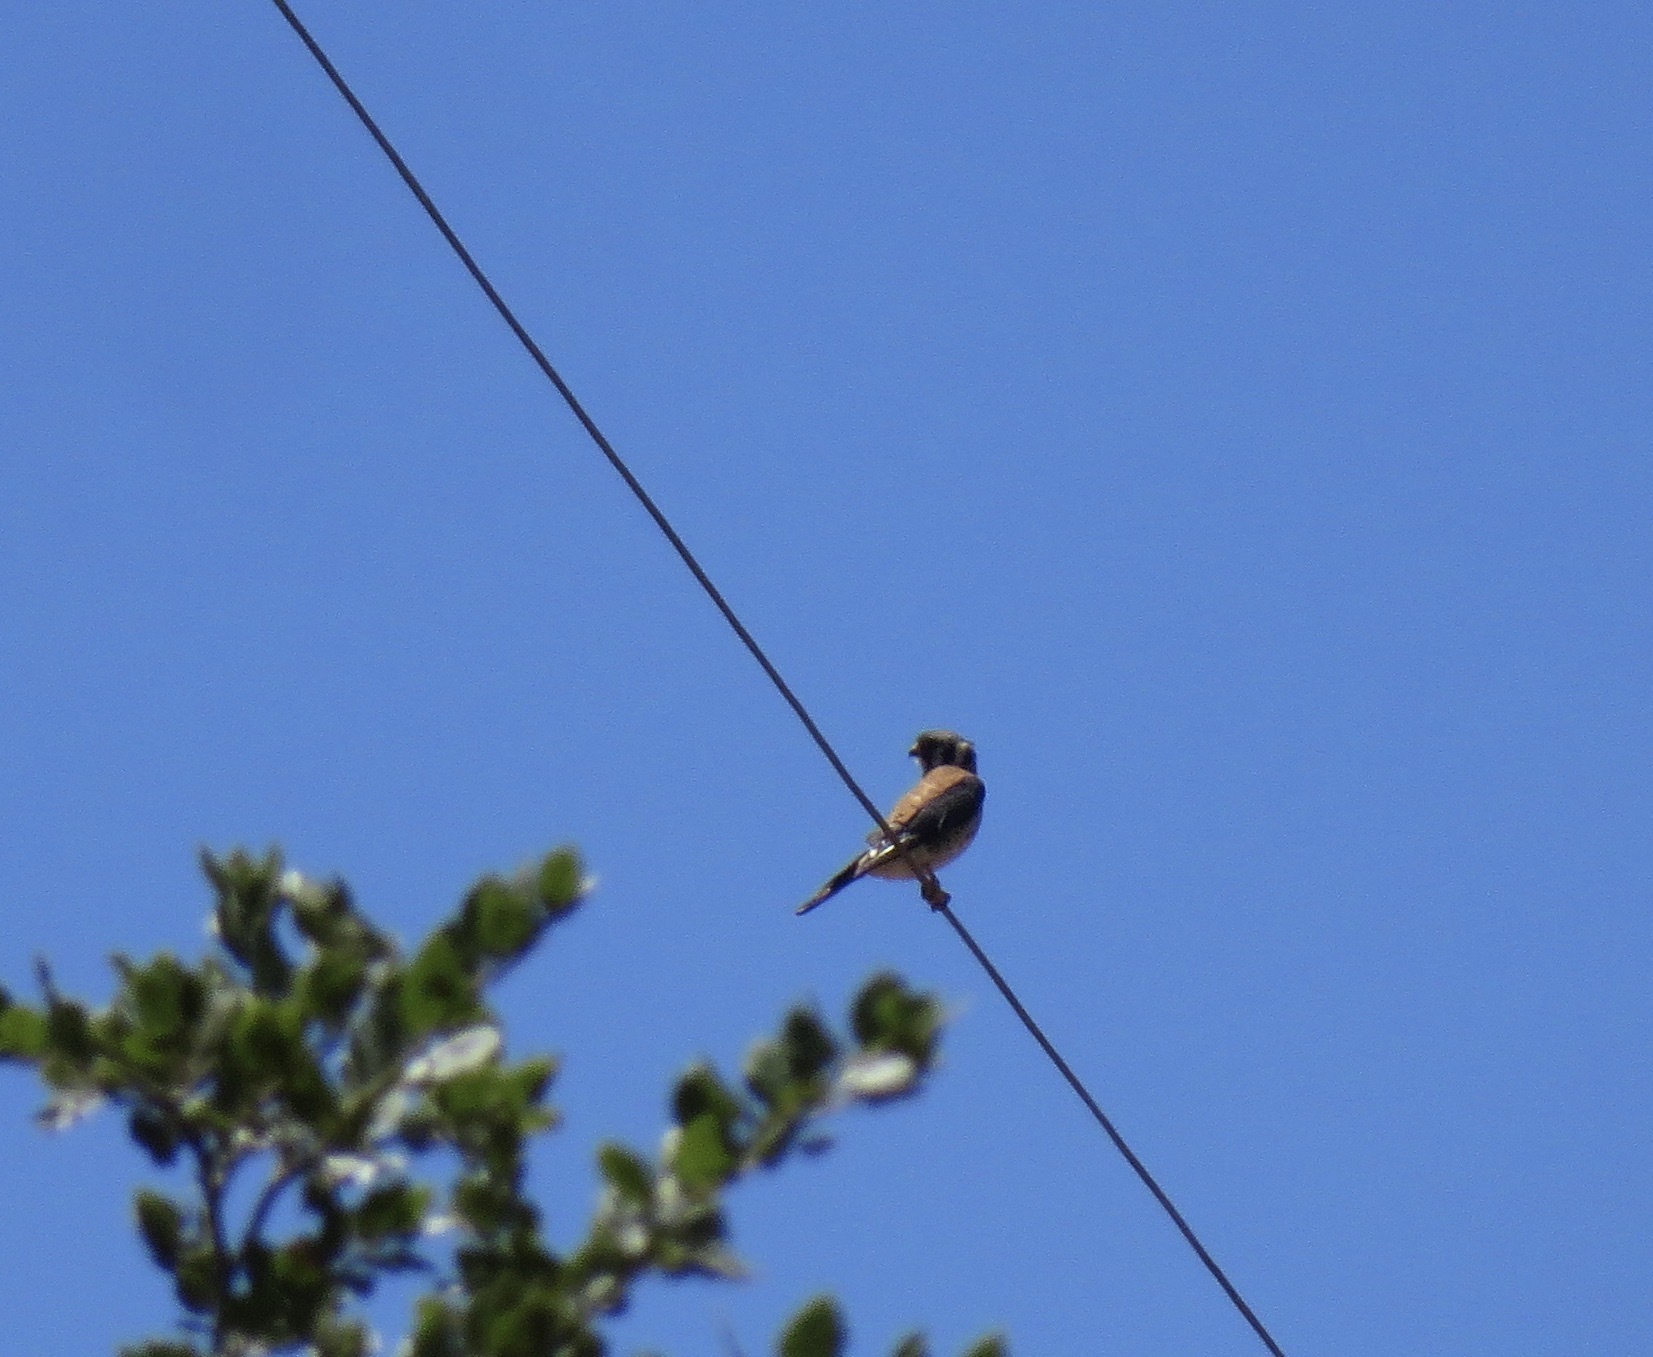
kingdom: Animalia
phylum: Chordata
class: Aves
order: Falconiformes
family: Falconidae
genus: Falco
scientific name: Falco sparverius
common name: American kestrel
